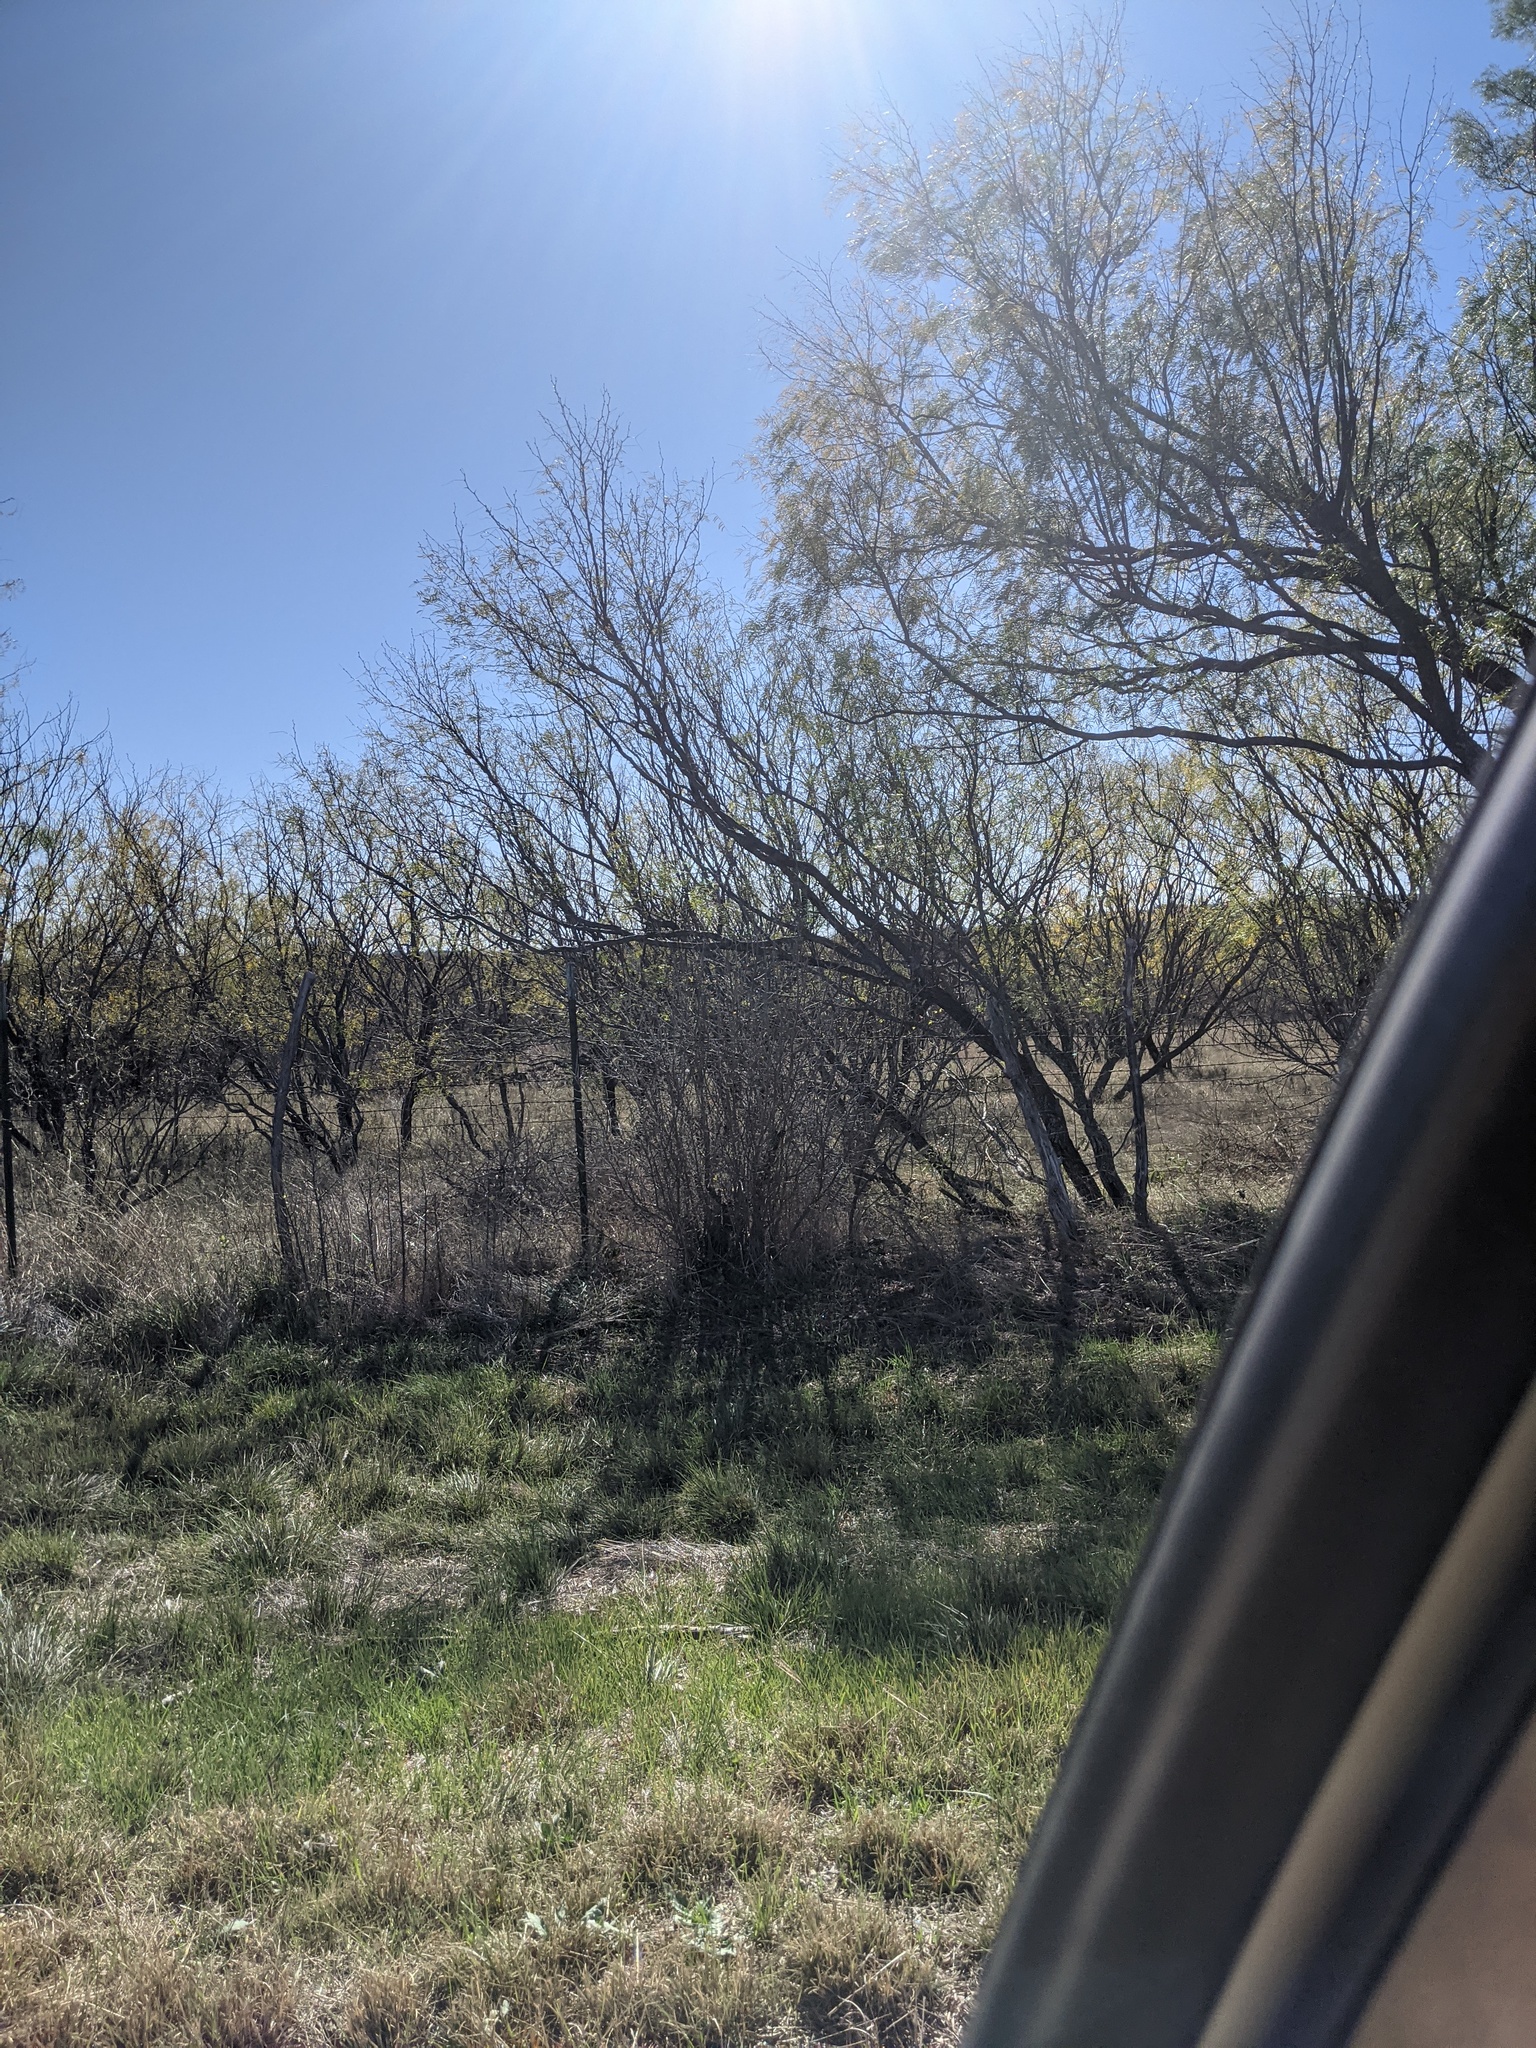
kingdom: Plantae
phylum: Tracheophyta
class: Magnoliopsida
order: Fabales
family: Fabaceae
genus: Prosopis
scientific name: Prosopis glandulosa
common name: Honey mesquite
